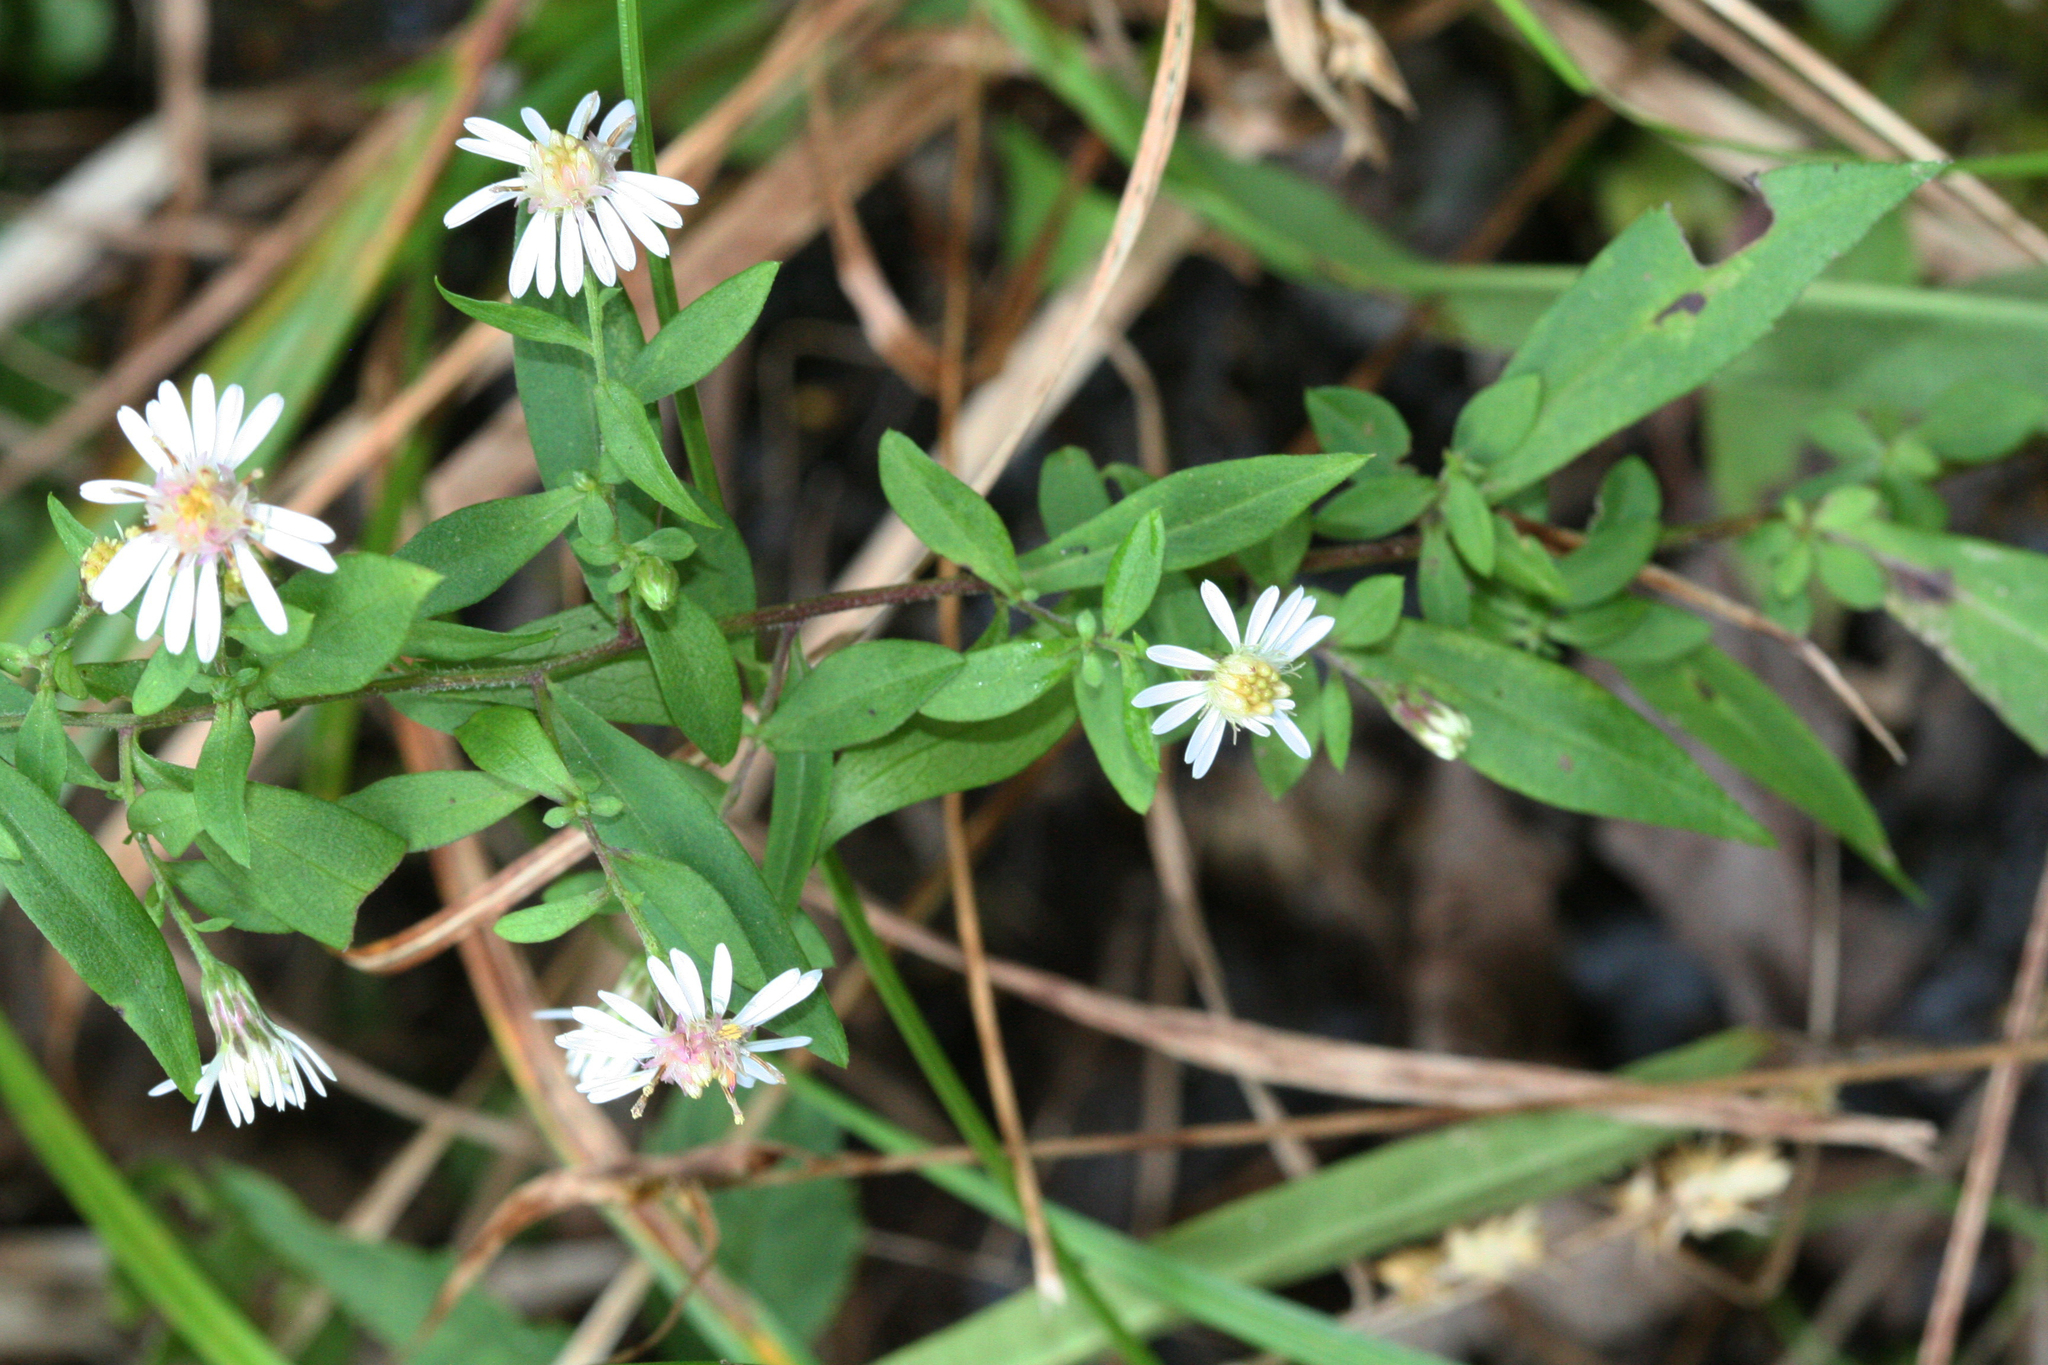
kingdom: Plantae
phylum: Tracheophyta
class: Magnoliopsida
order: Asterales
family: Asteraceae
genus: Symphyotrichum
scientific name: Symphyotrichum lateriflorum
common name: Calico aster
